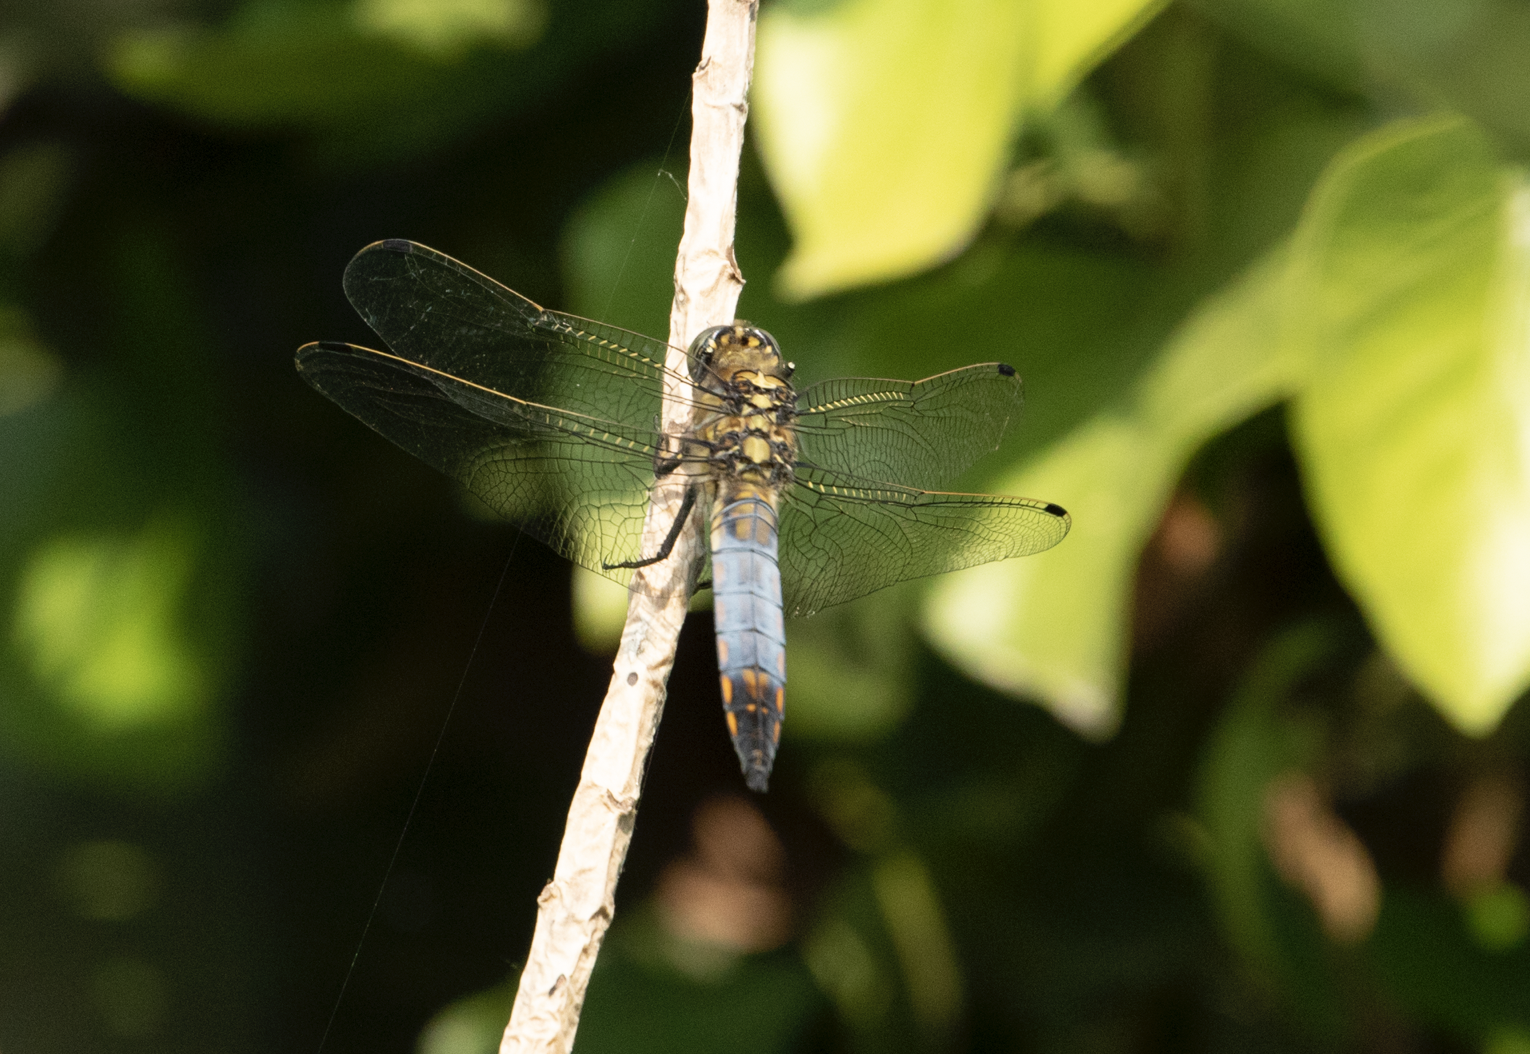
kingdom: Animalia
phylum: Arthropoda
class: Insecta
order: Odonata
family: Libellulidae
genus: Orthetrum
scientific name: Orthetrum cancellatum
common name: Black-tailed skimmer
